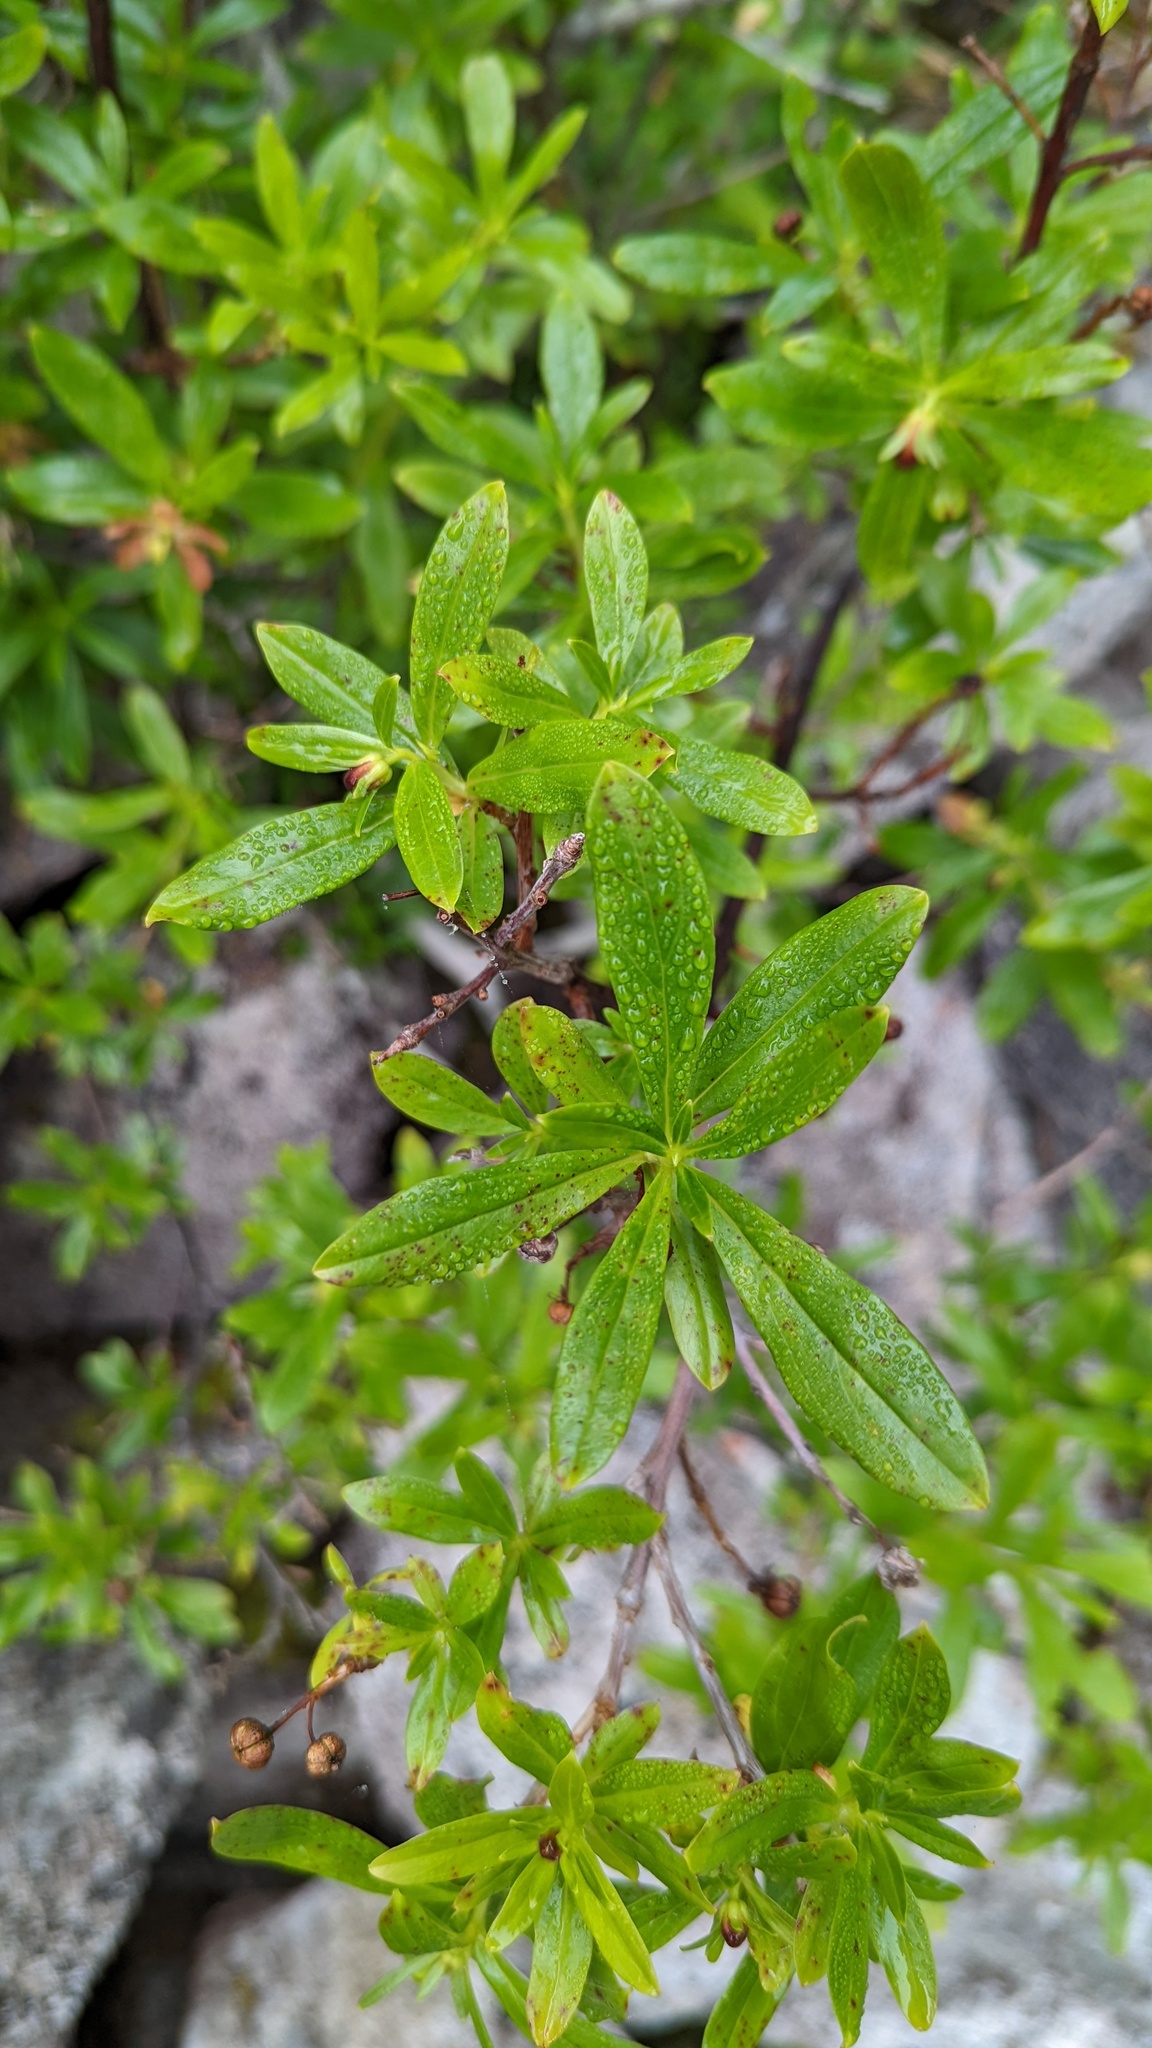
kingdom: Plantae
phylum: Tracheophyta
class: Magnoliopsida
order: Ericales
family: Ericaceae
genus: Elliottia
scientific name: Elliottia pyroliflora
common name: Copperbush
